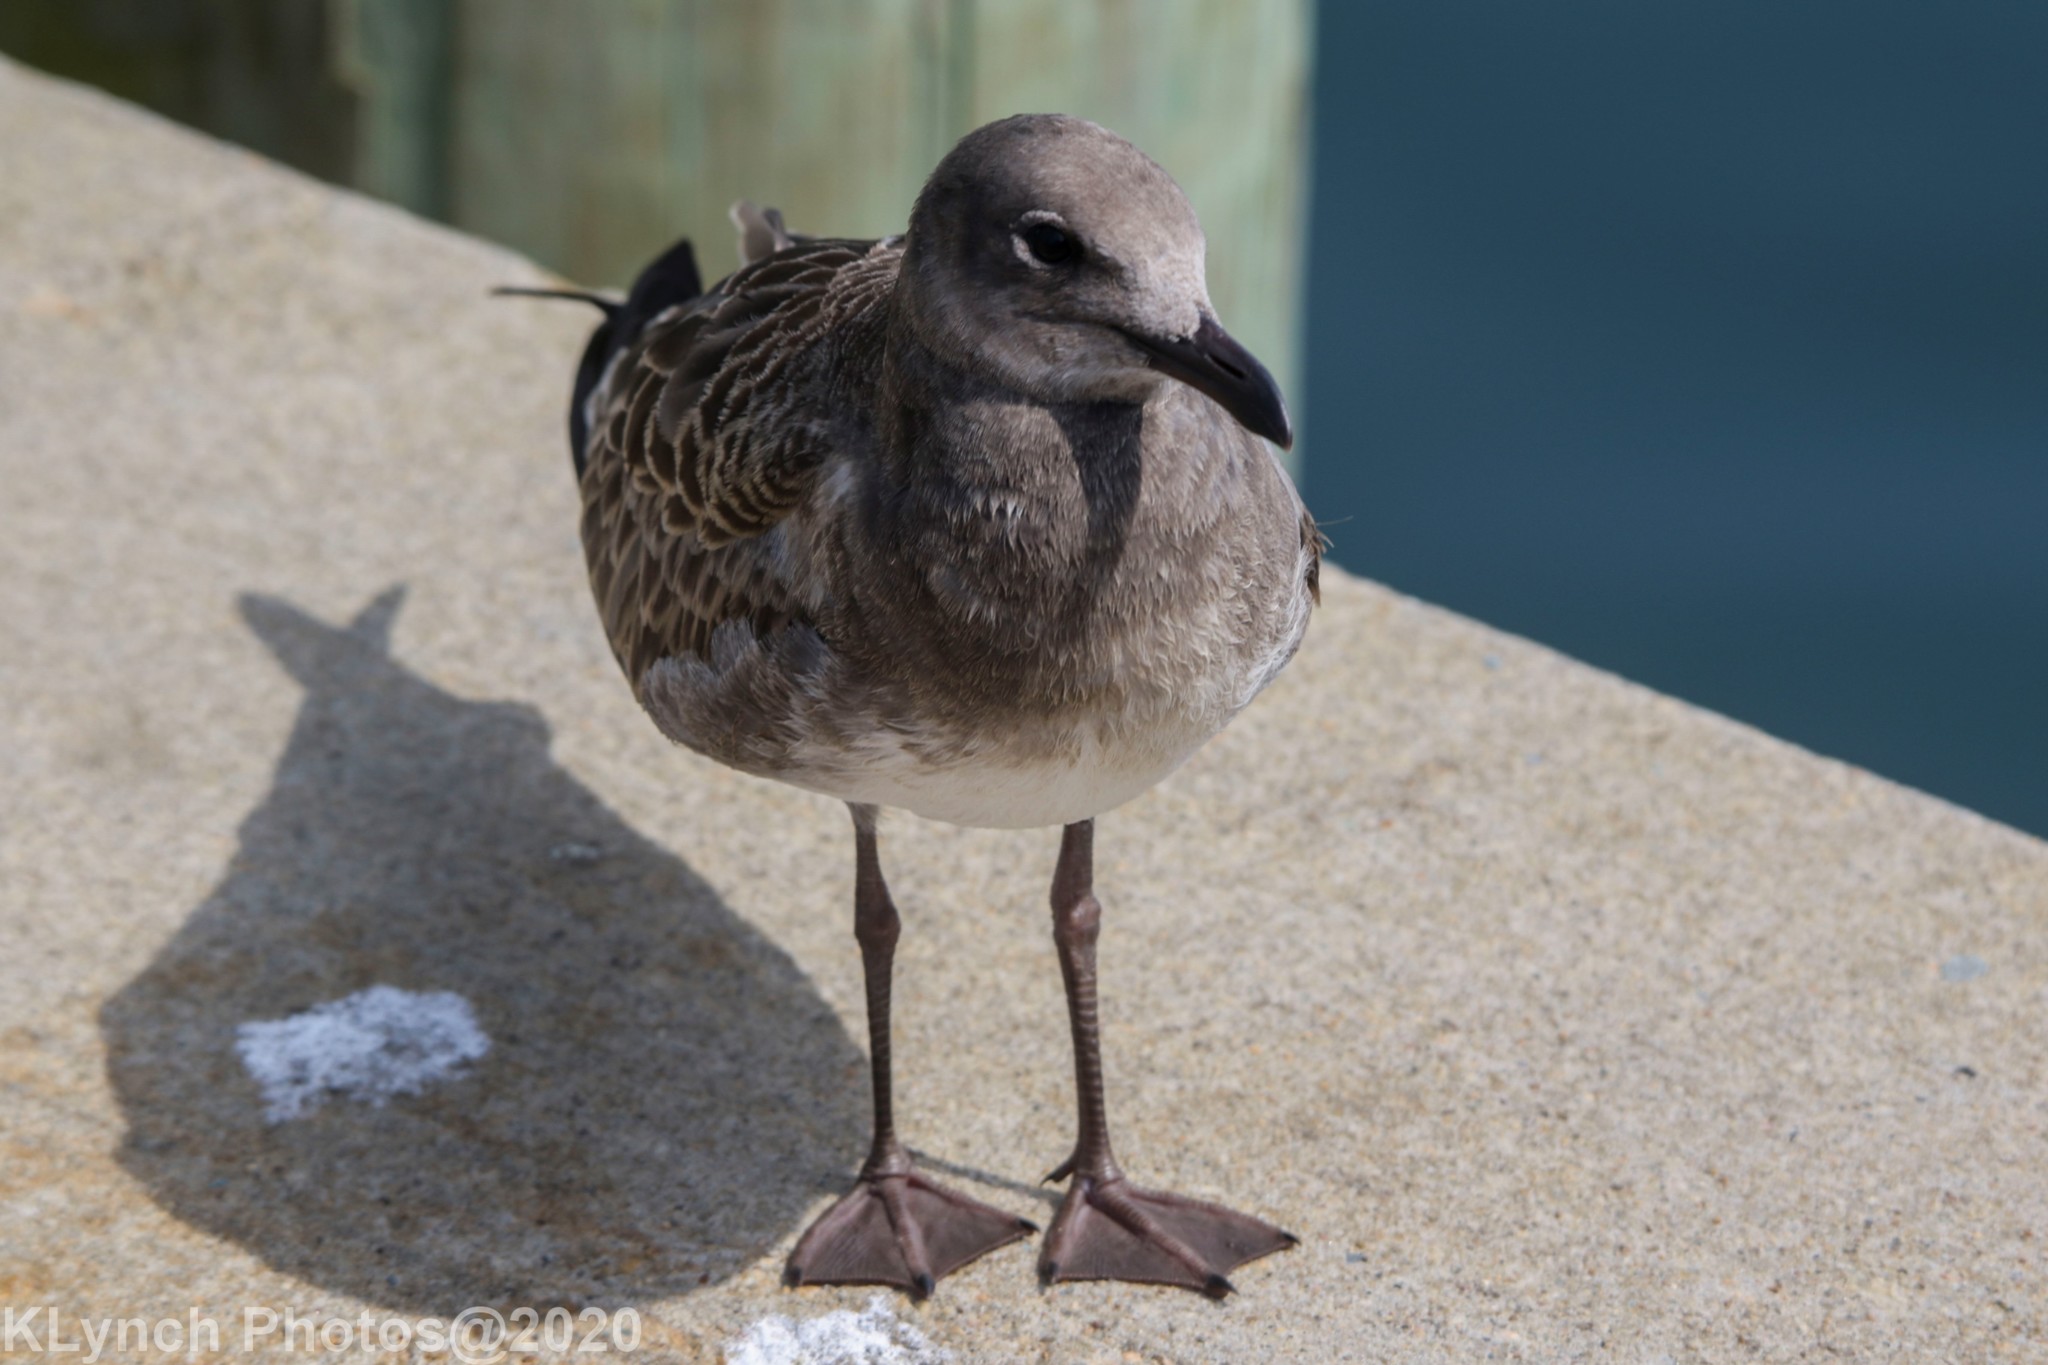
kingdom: Animalia
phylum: Chordata
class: Aves
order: Charadriiformes
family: Laridae
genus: Leucophaeus
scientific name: Leucophaeus atricilla
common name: Laughing gull
